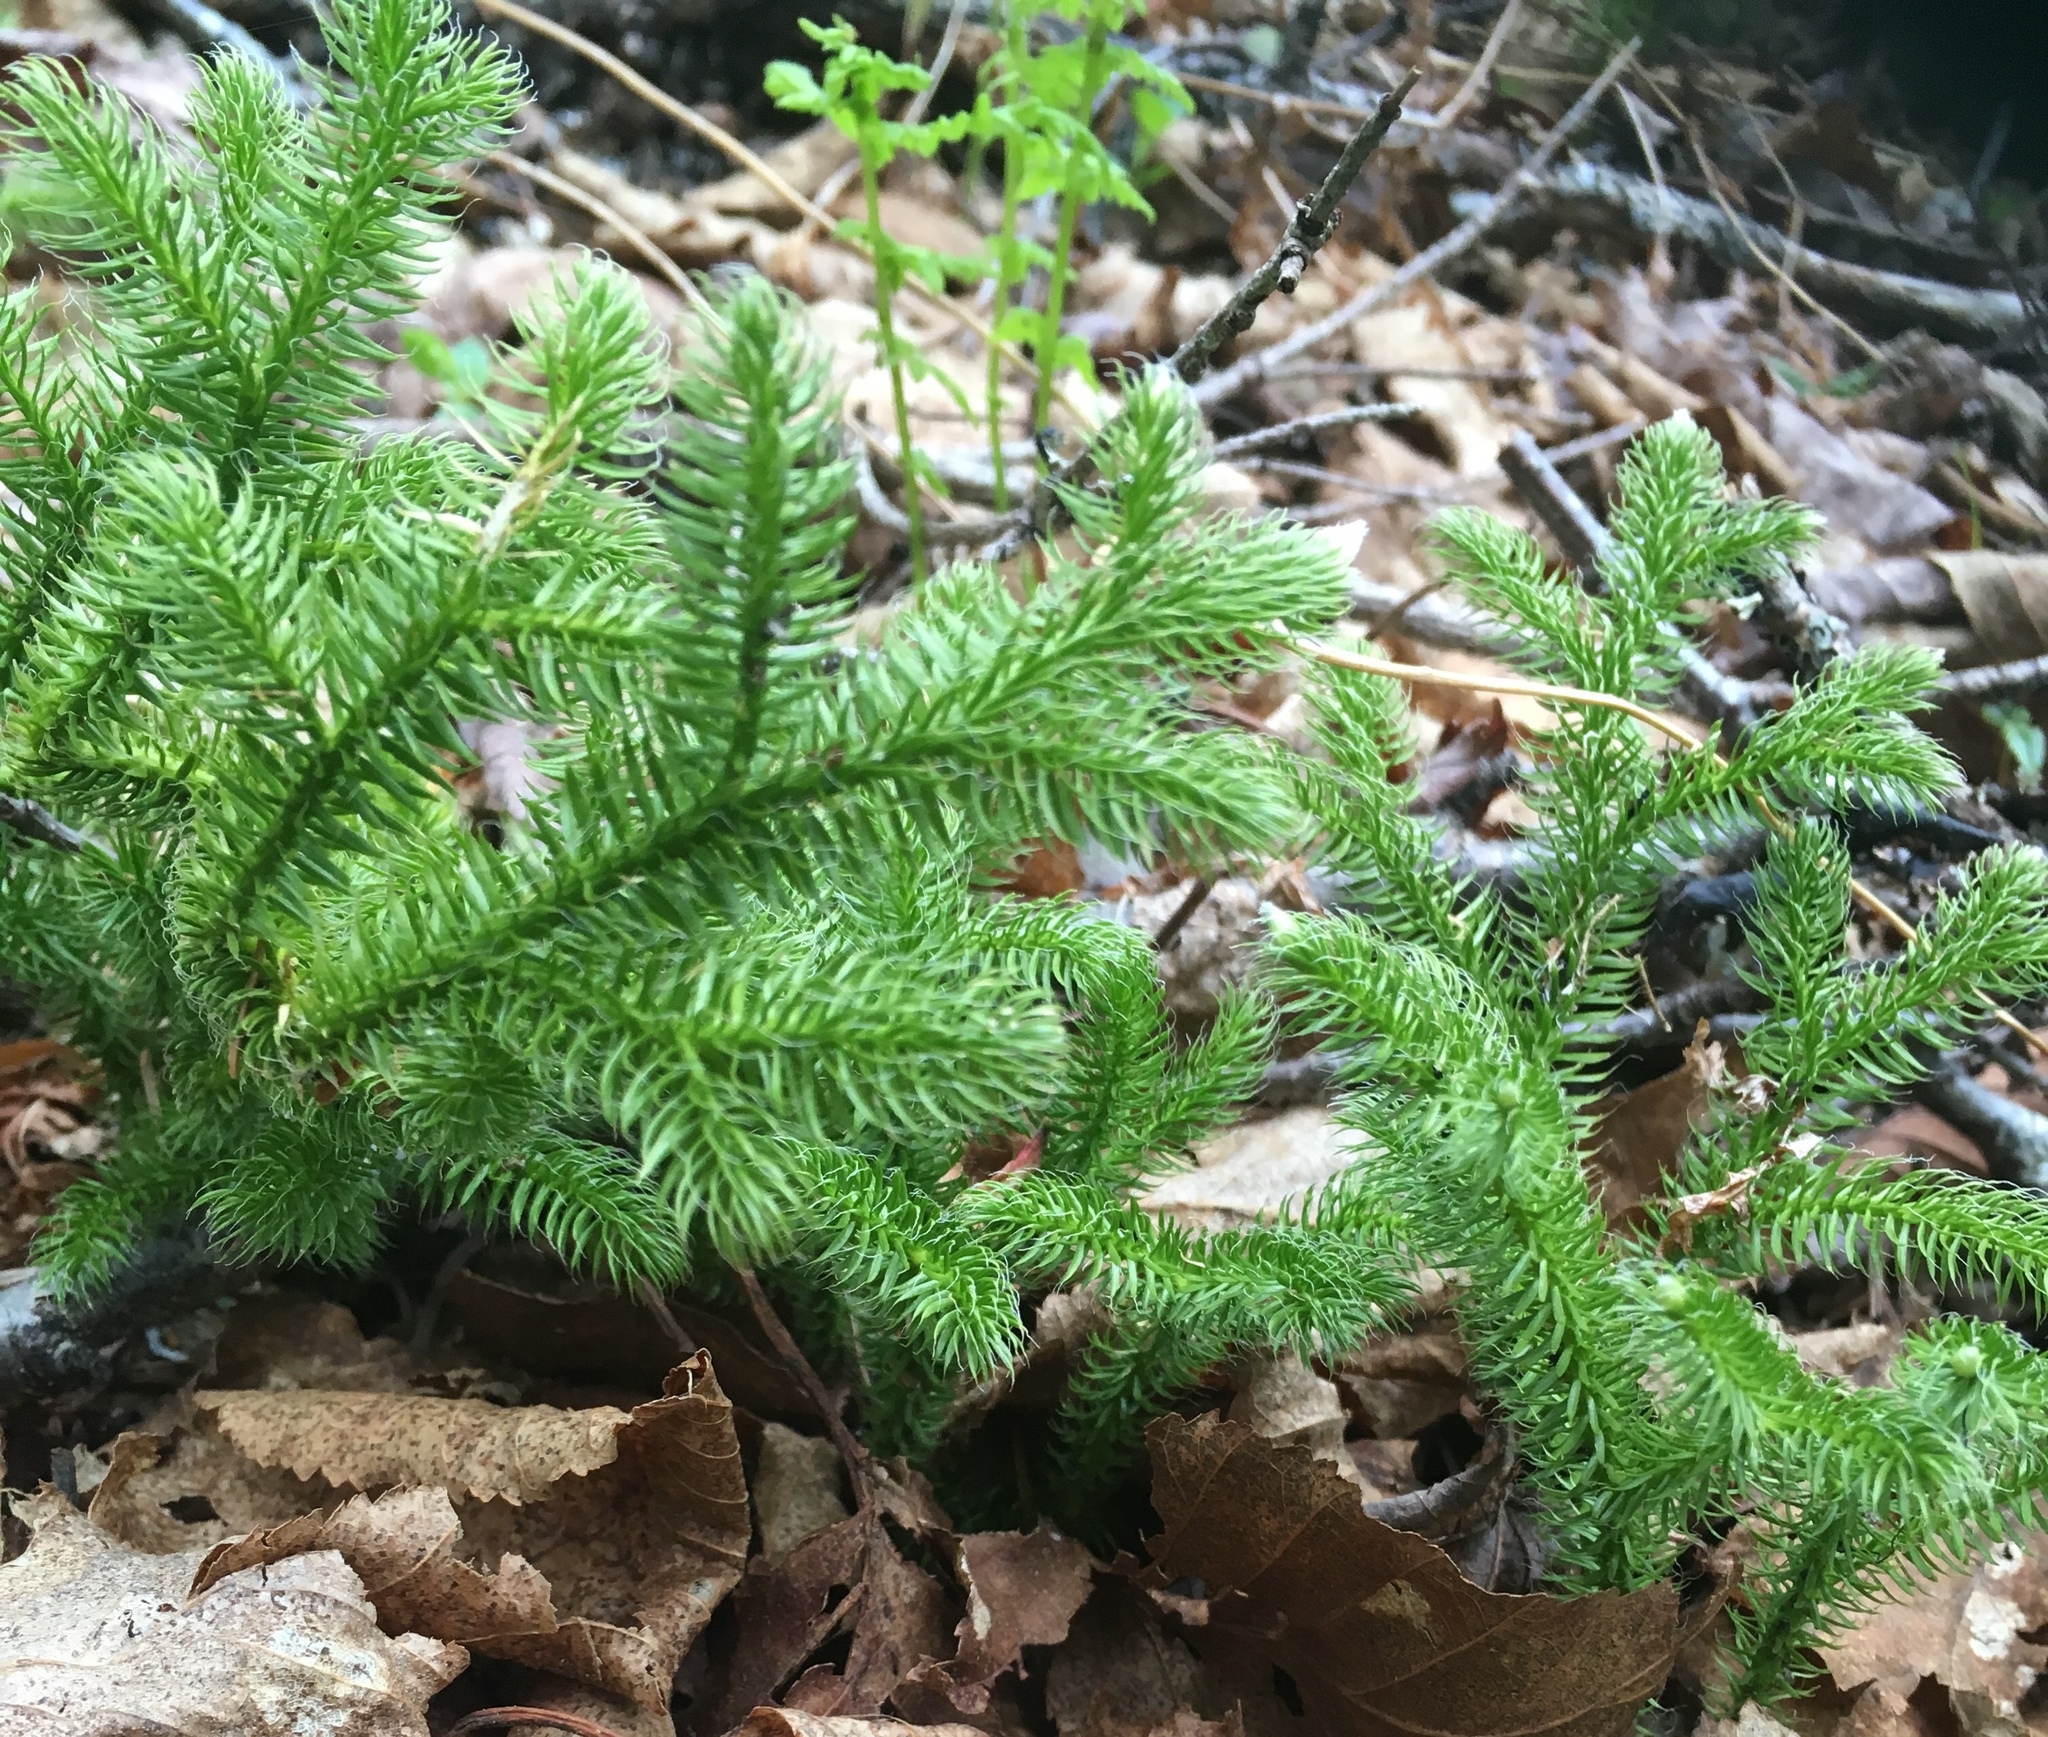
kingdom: Plantae
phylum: Tracheophyta
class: Lycopodiopsida
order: Lycopodiales
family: Lycopodiaceae
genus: Lycopodium
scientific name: Lycopodium clavatum
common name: Stag's-horn clubmoss
